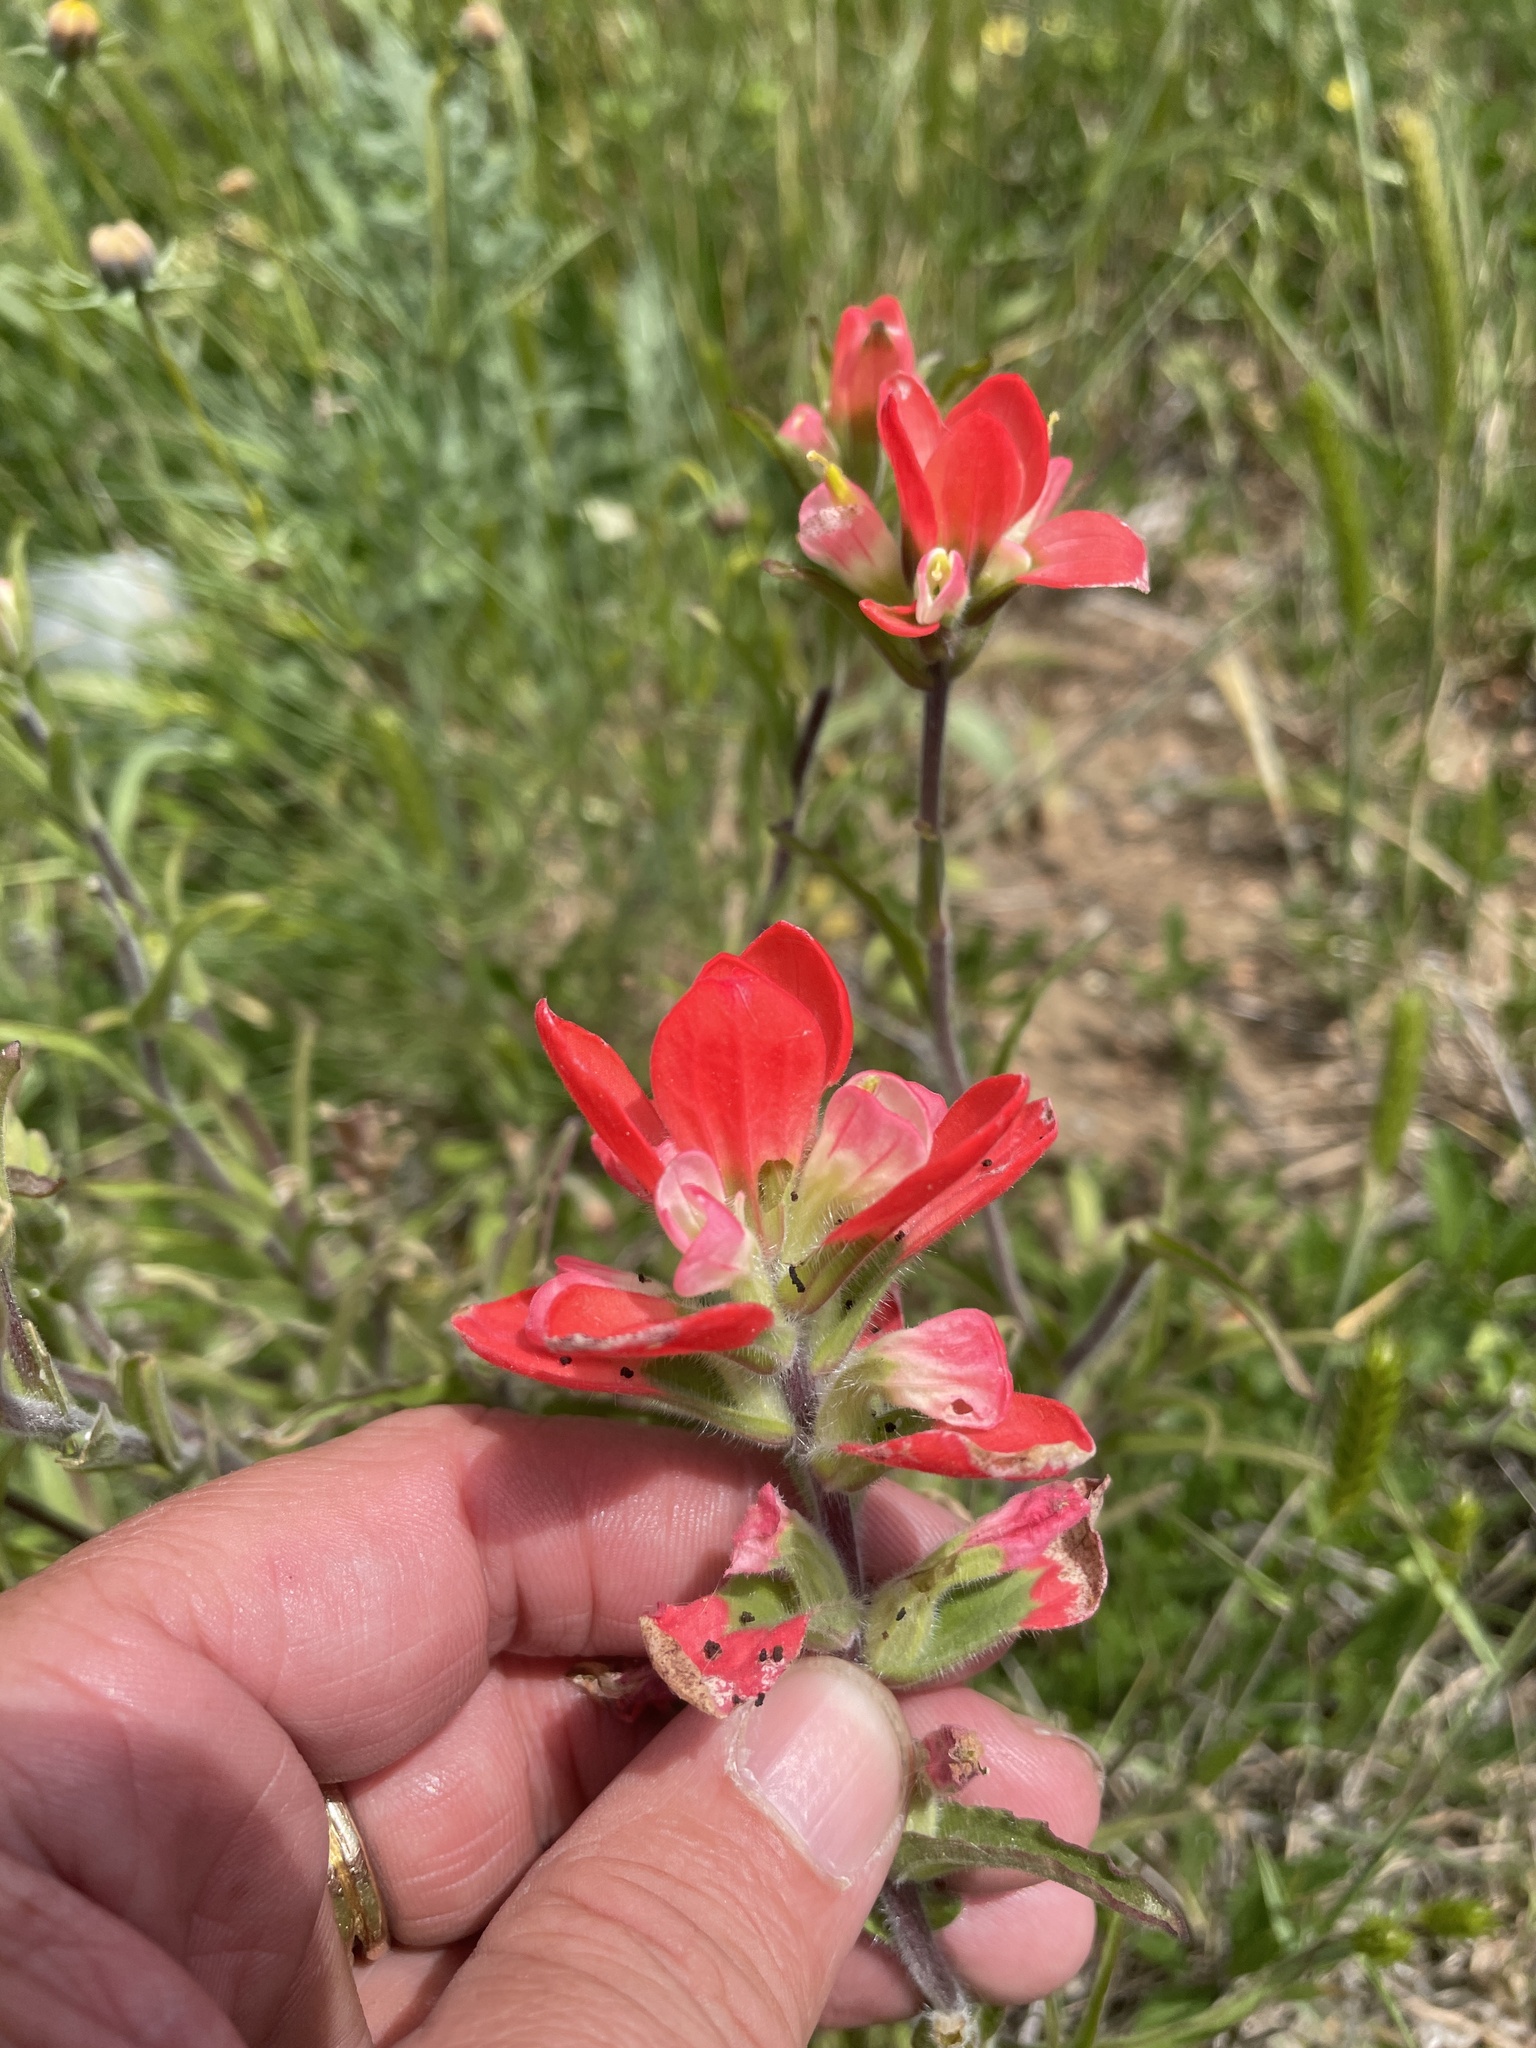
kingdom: Plantae
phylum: Tracheophyta
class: Magnoliopsida
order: Lamiales
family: Orobanchaceae
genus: Castilleja
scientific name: Castilleja indivisa
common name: Texas paintbrush
